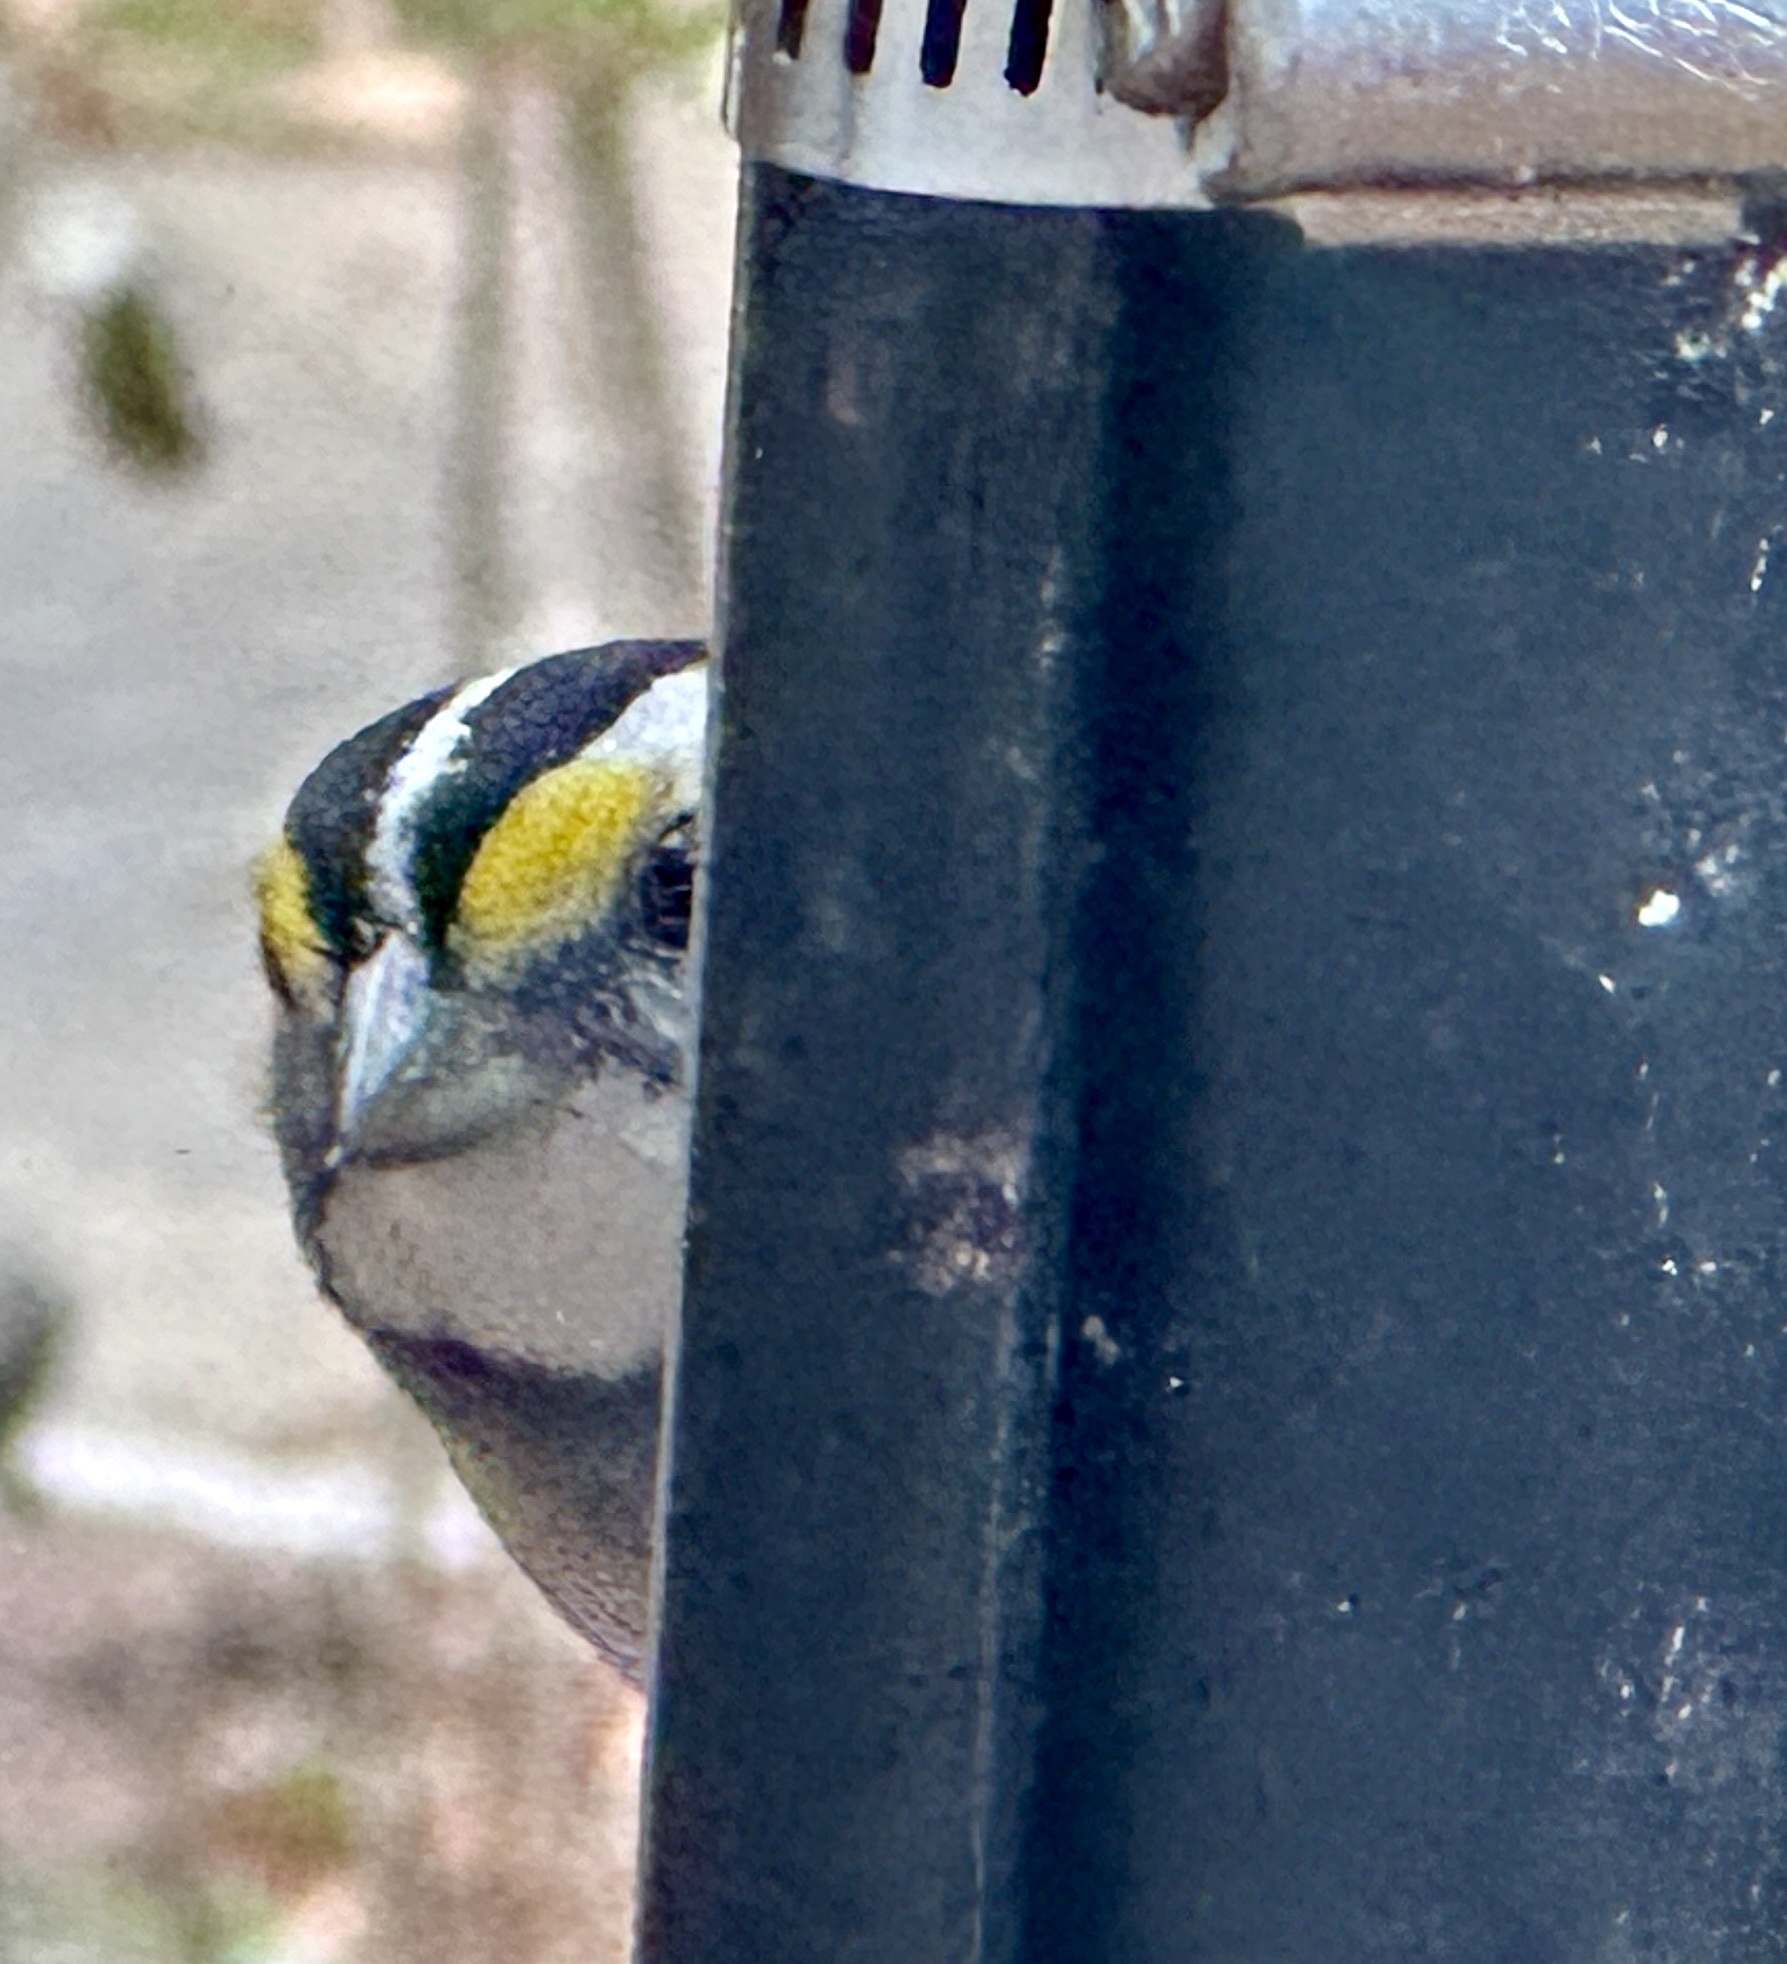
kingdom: Animalia
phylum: Chordata
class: Aves
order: Passeriformes
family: Passerellidae
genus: Zonotrichia
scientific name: Zonotrichia albicollis
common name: White-throated sparrow
